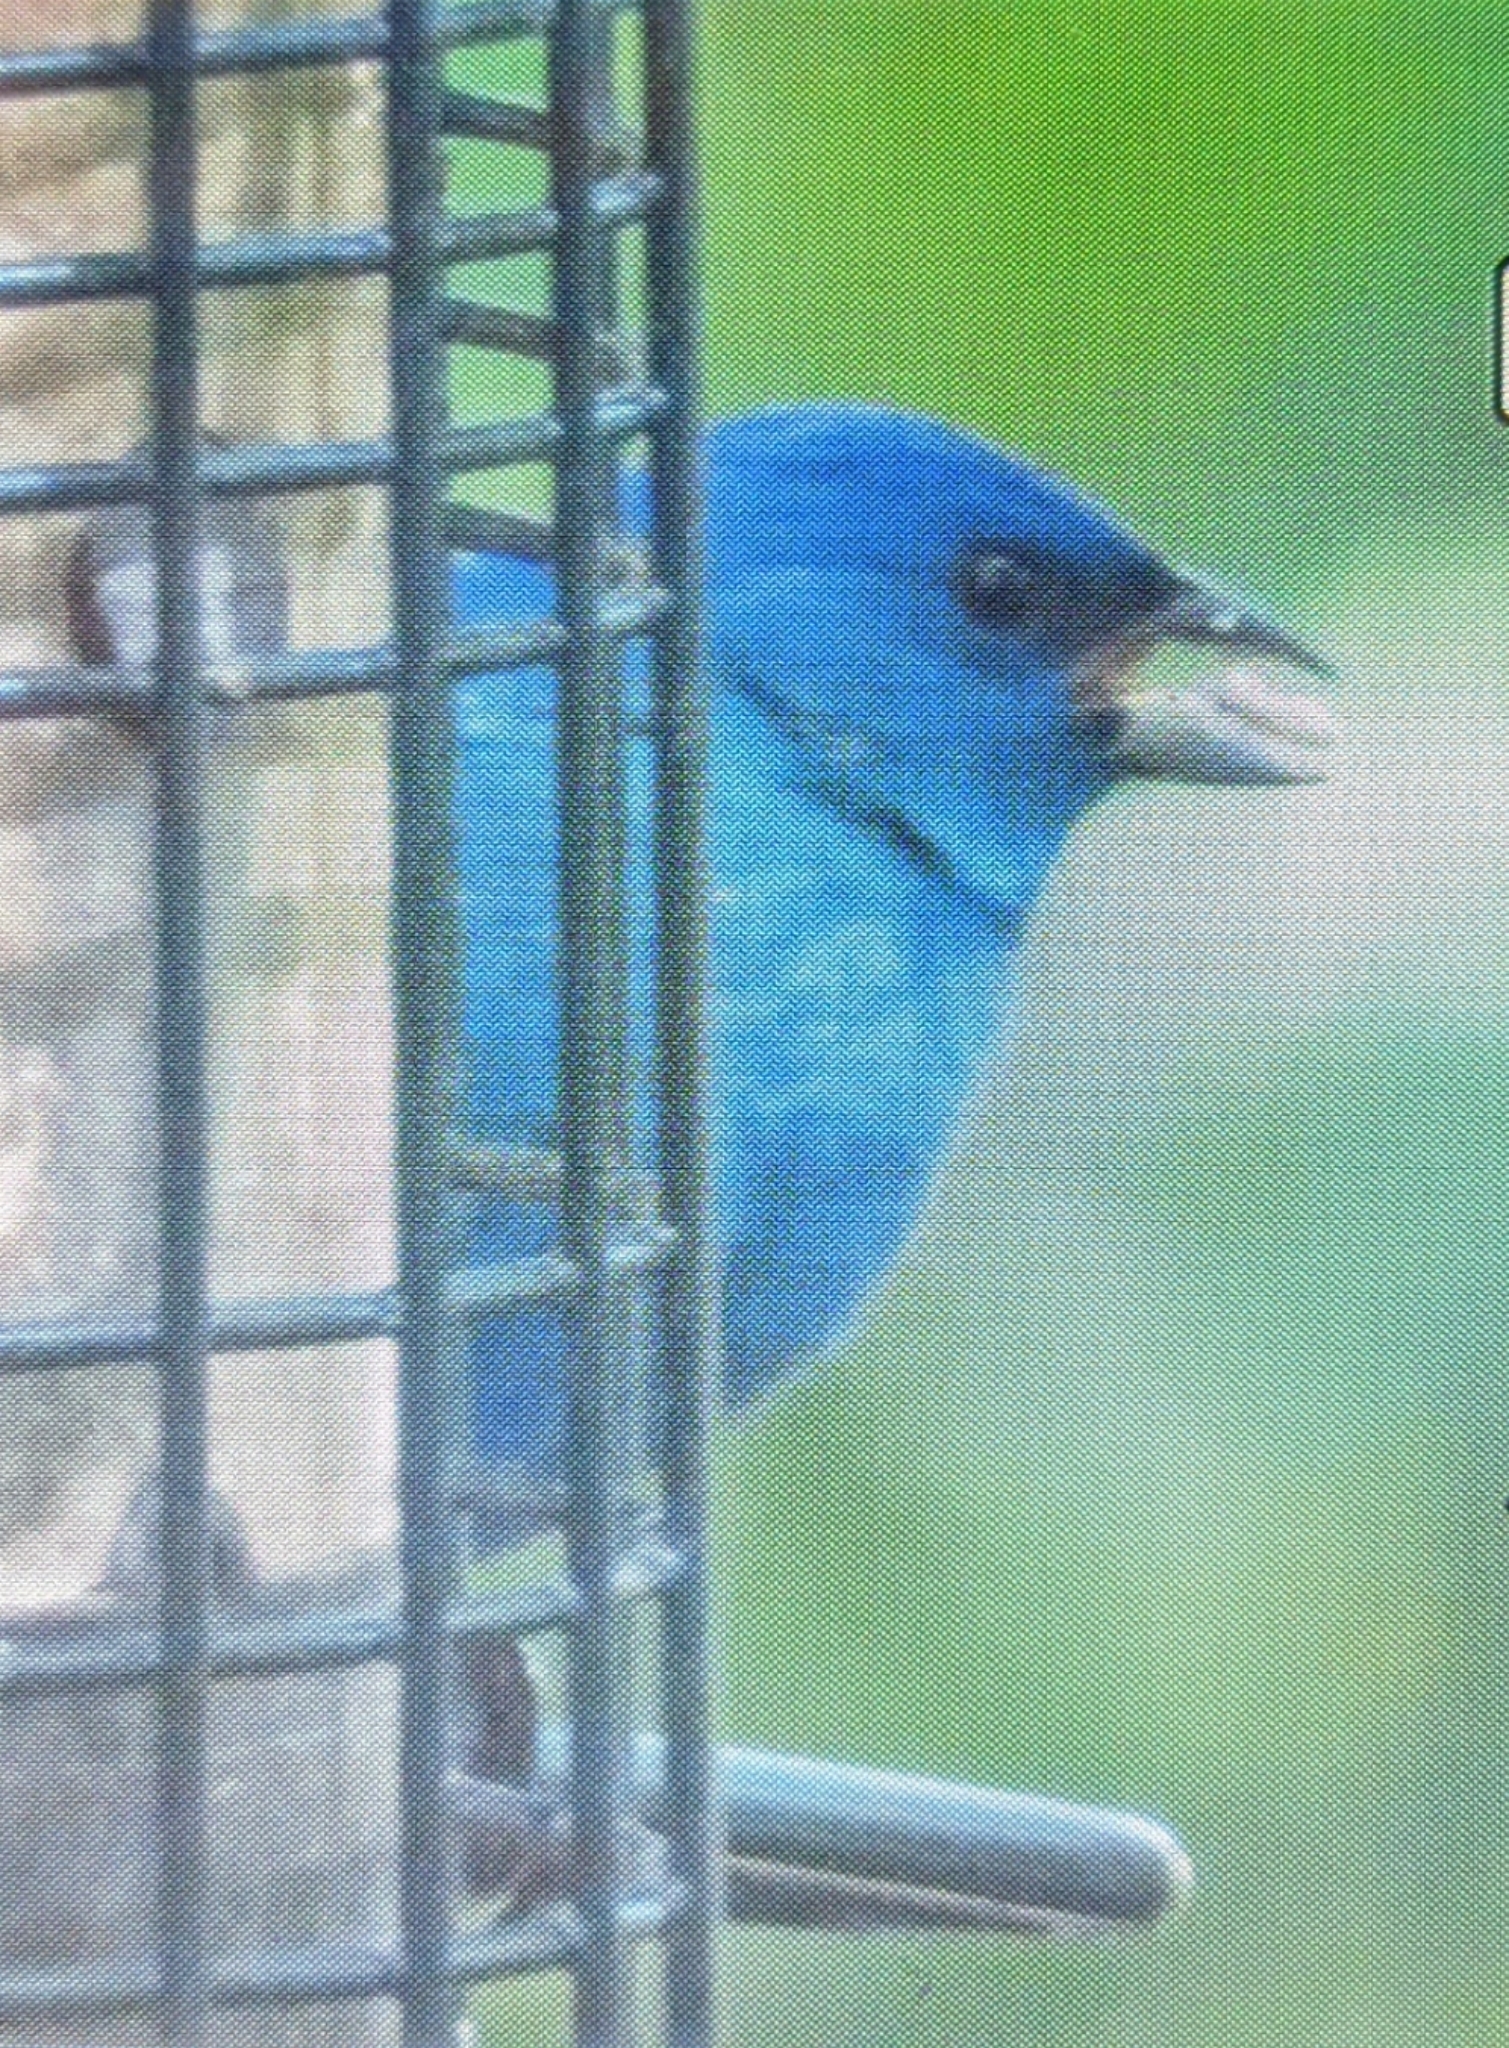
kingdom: Animalia
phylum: Chordata
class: Aves
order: Passeriformes
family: Cardinalidae
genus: Passerina
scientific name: Passerina cyanea
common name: Indigo bunting
